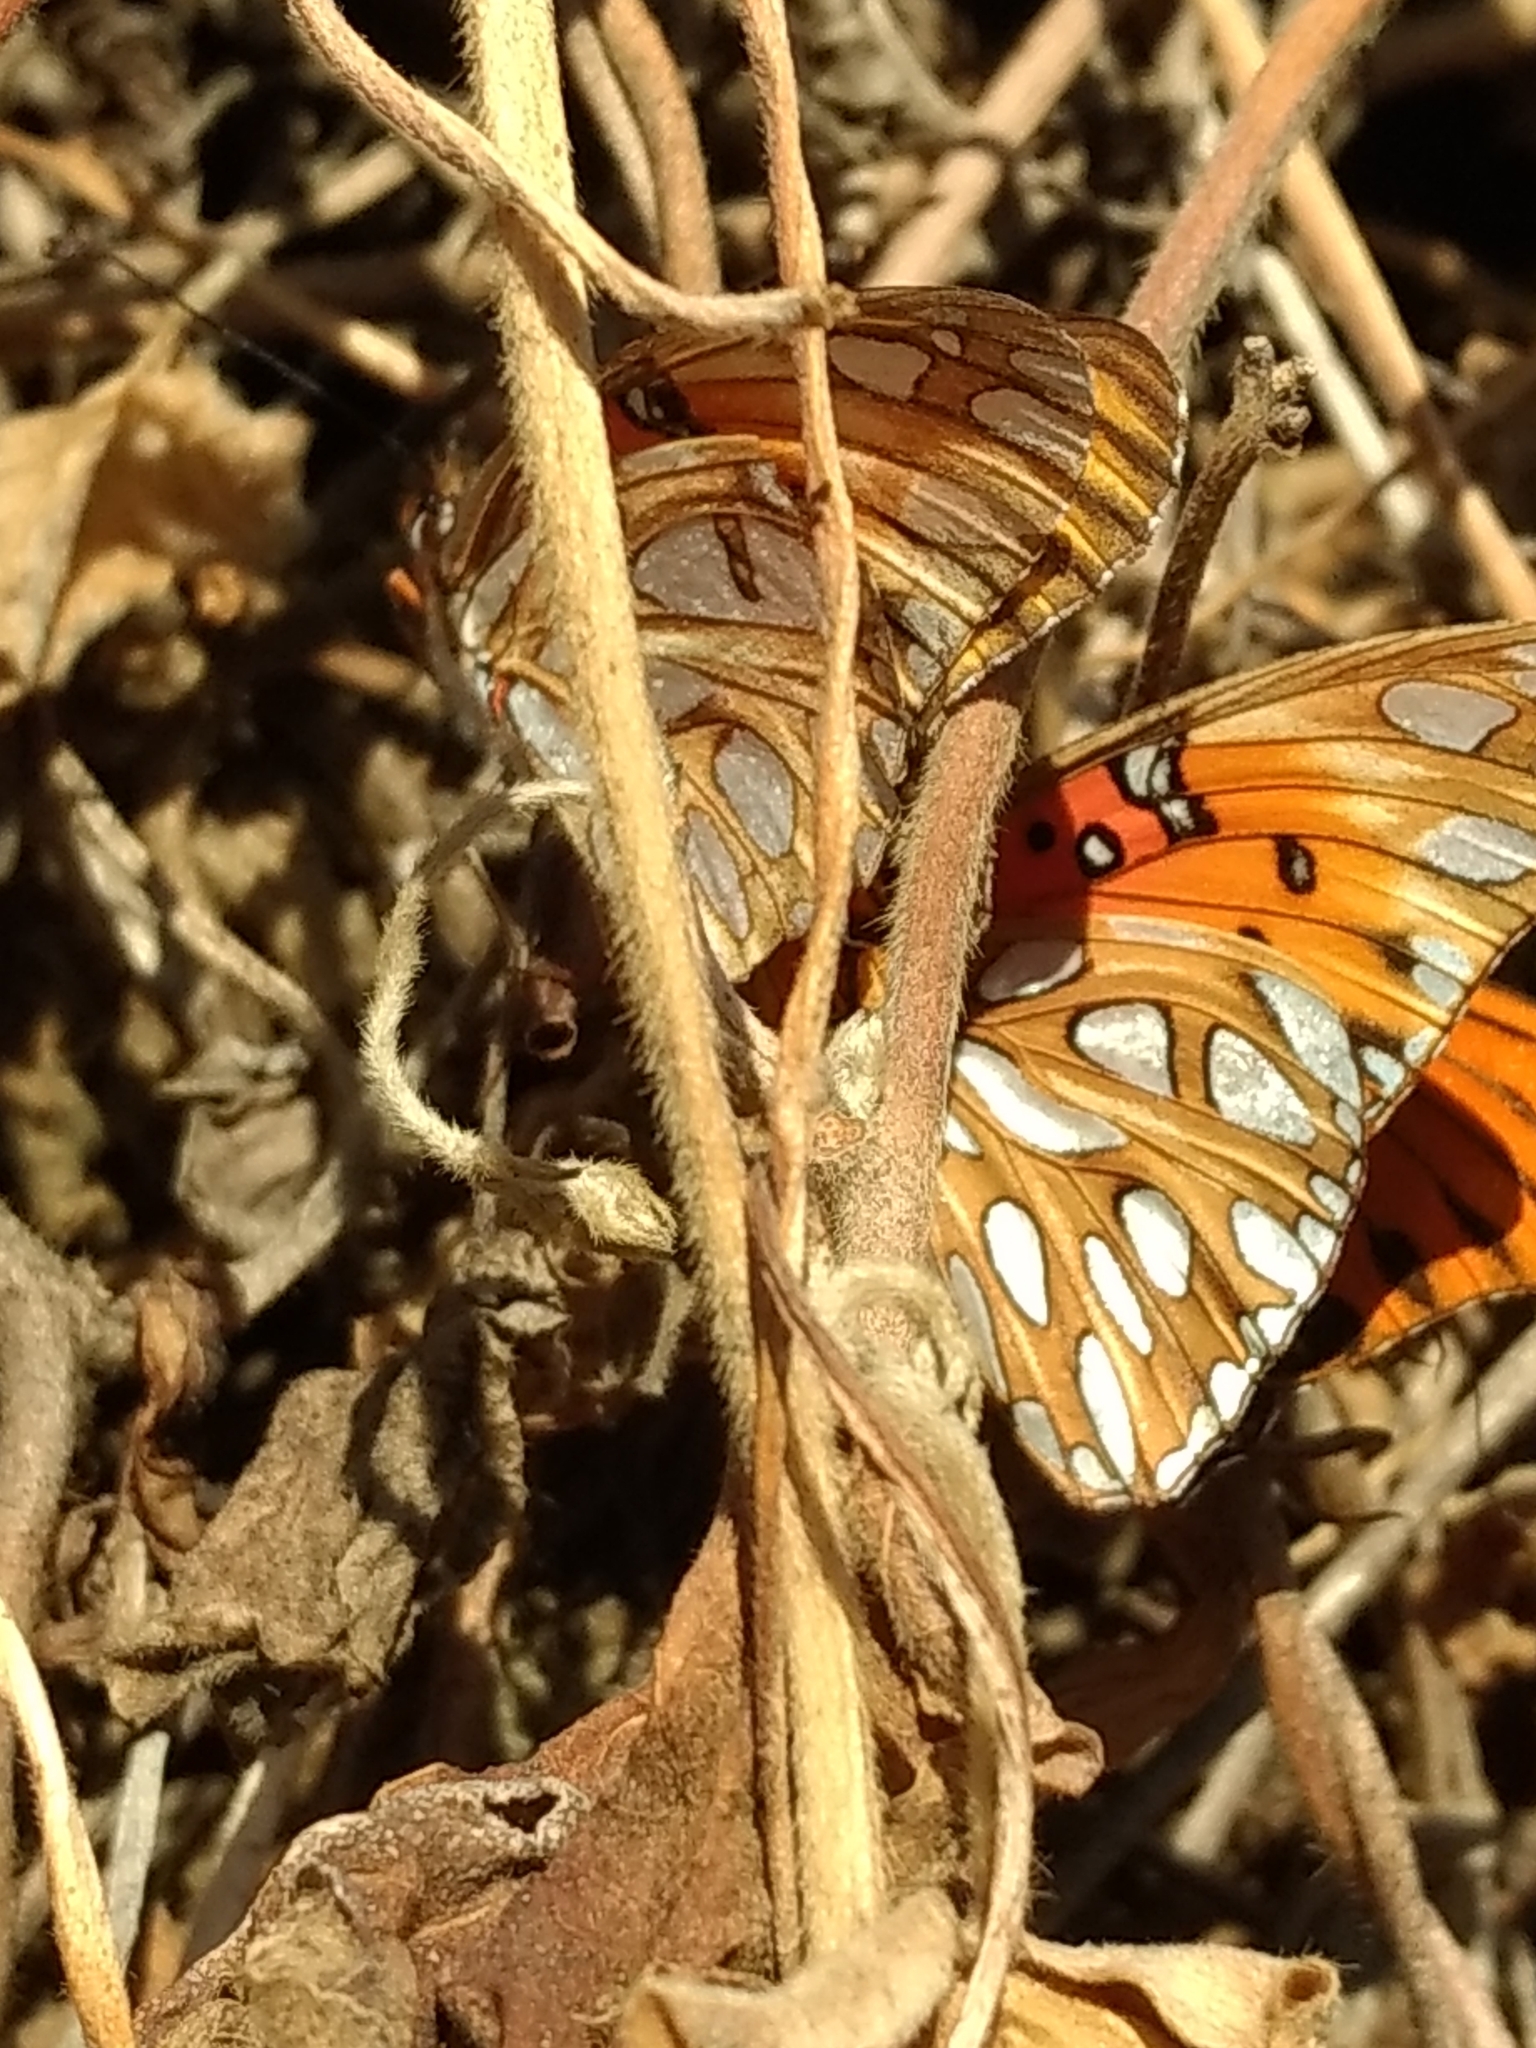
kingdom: Animalia
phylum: Arthropoda
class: Insecta
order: Lepidoptera
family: Nymphalidae
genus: Dione
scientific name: Dione vanillae
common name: Gulf fritillary
